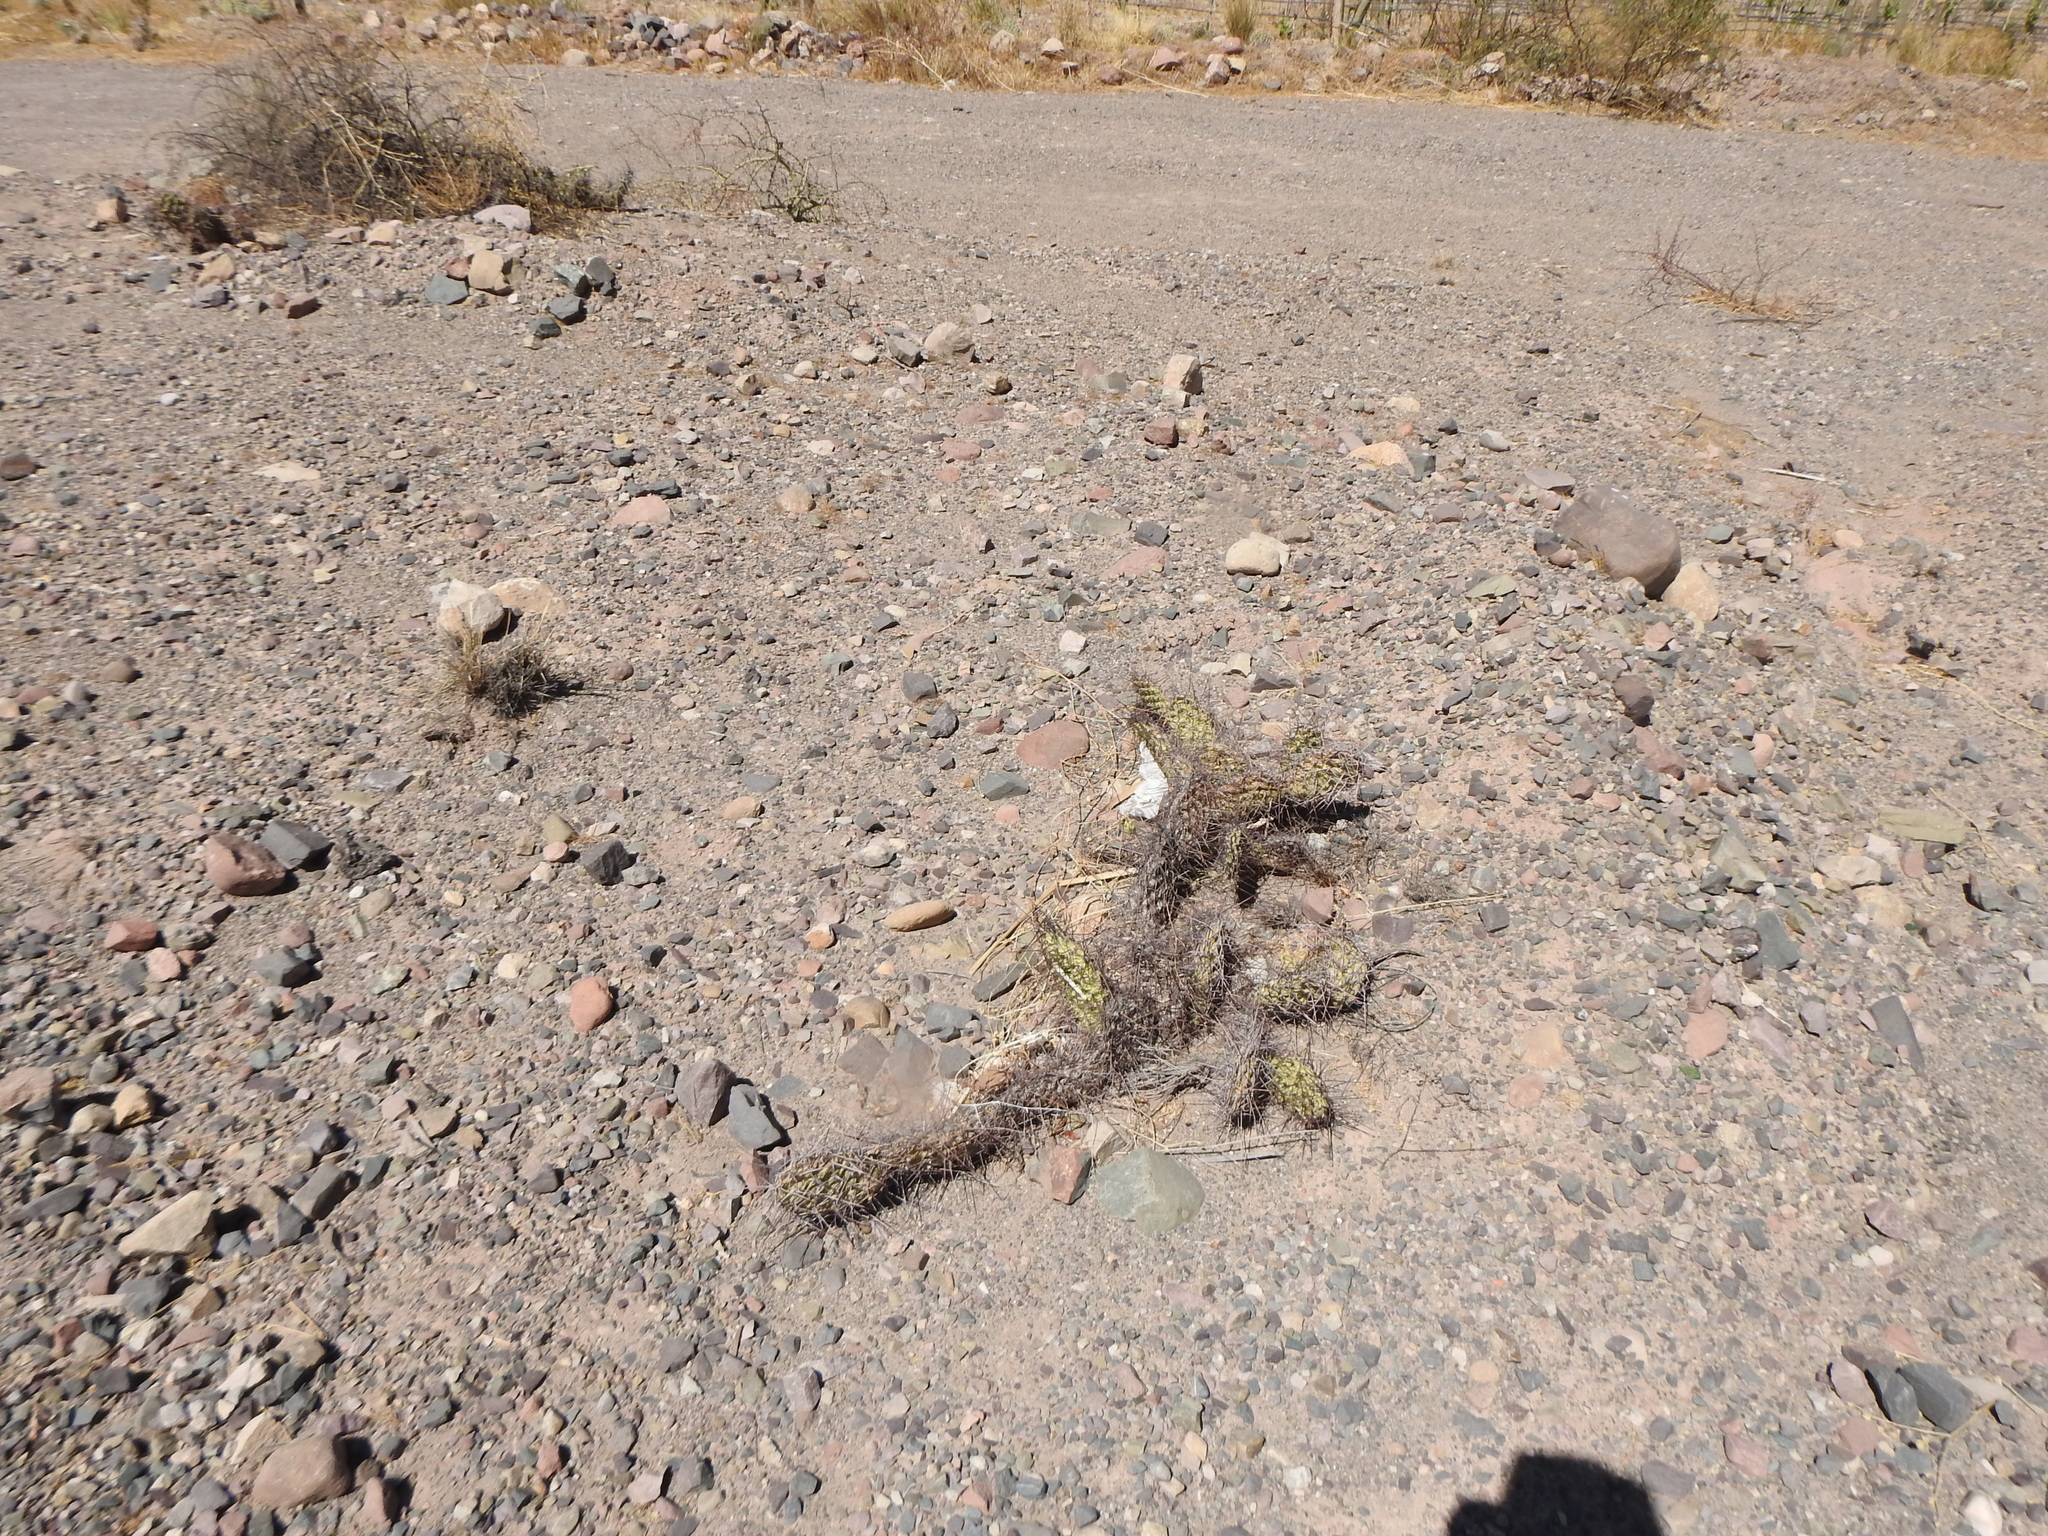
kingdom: Plantae
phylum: Tracheophyta
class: Magnoliopsida
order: Caryophyllales
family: Cactaceae
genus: Opuntia
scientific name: Opuntia sulphurea
